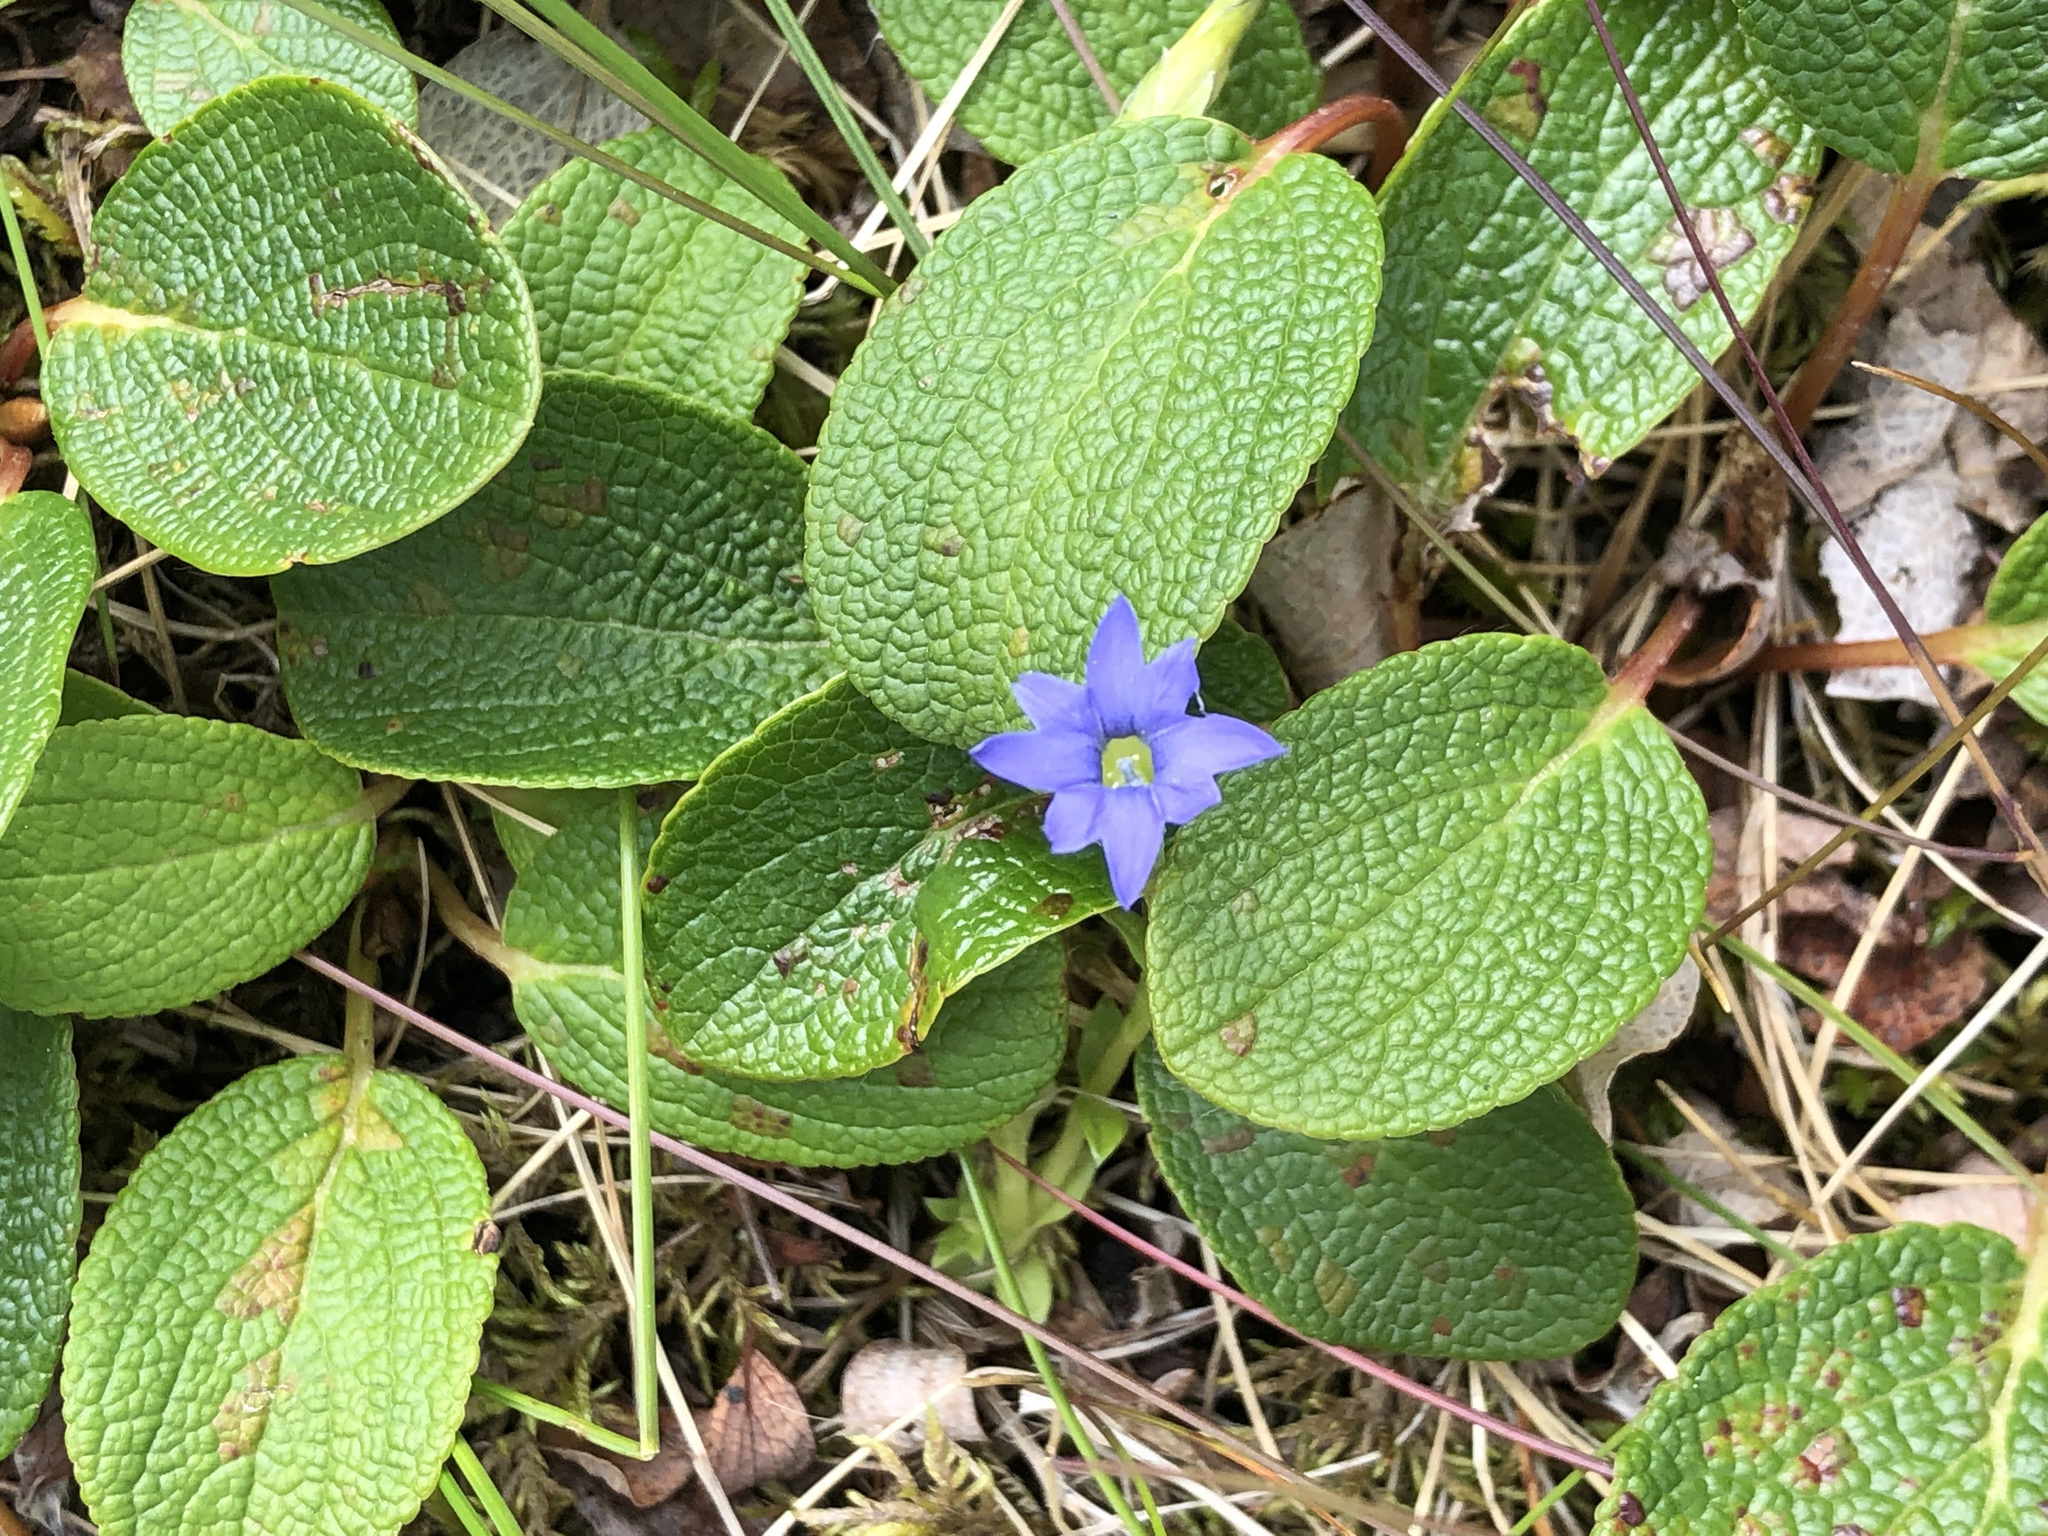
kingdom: Plantae
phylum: Tracheophyta
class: Magnoliopsida
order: Gentianales
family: Gentianaceae
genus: Gentiana
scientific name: Gentiana prostrata
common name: Moss gentian
